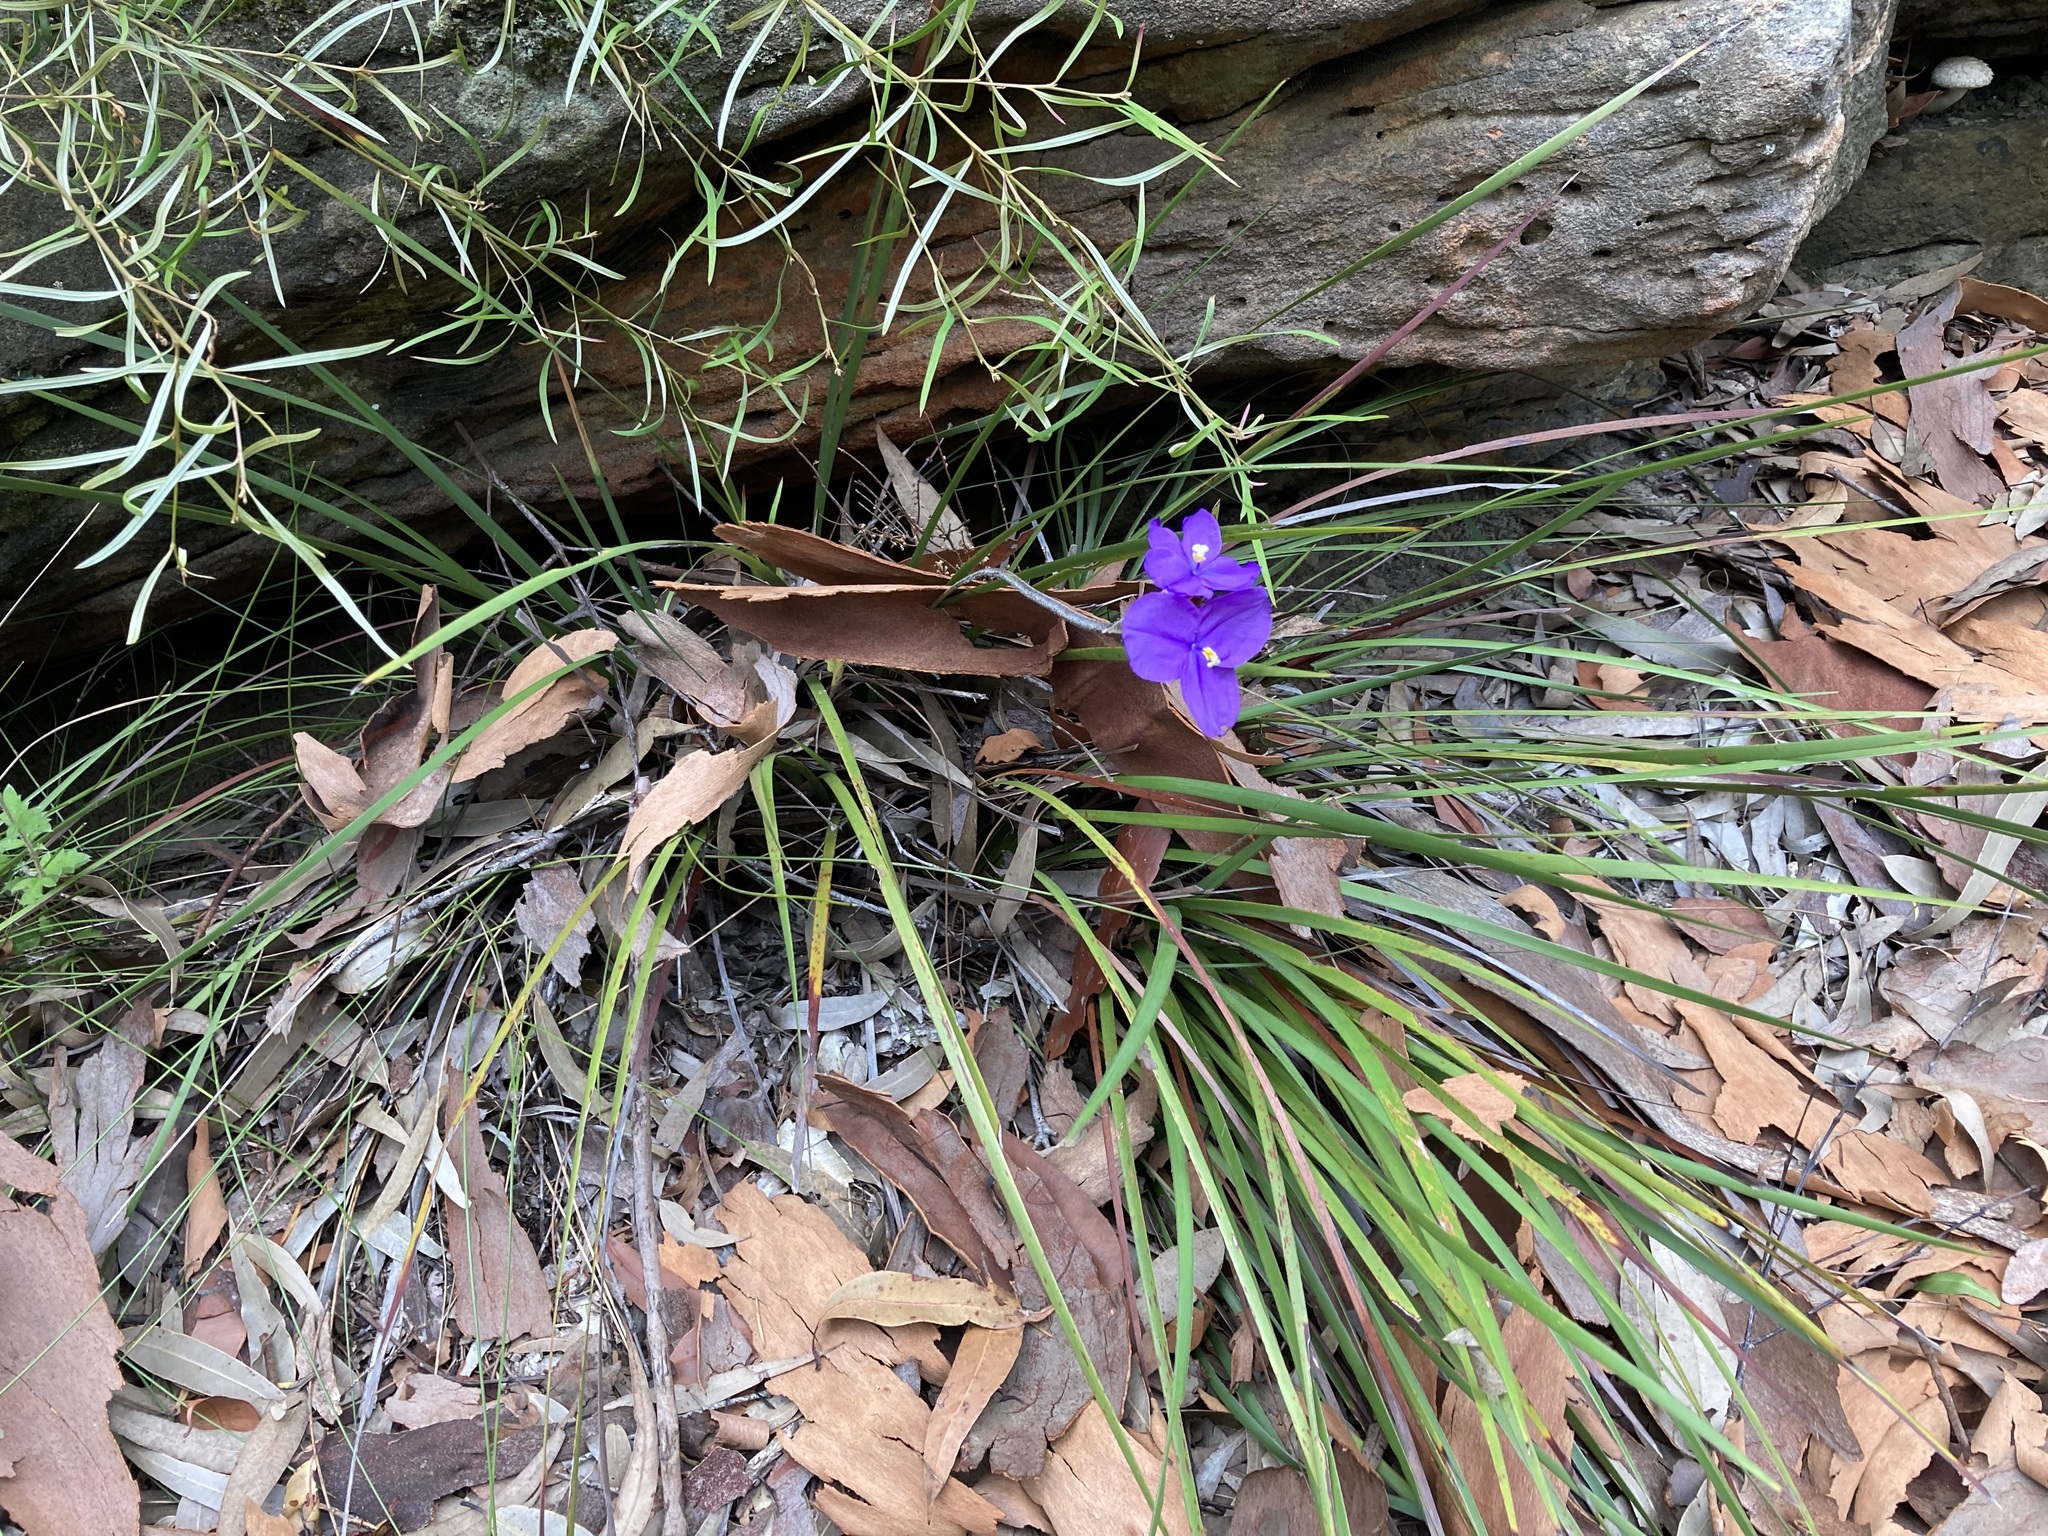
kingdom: Plantae
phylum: Tracheophyta
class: Liliopsida
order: Asparagales
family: Iridaceae
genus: Patersonia
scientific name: Patersonia sericea
